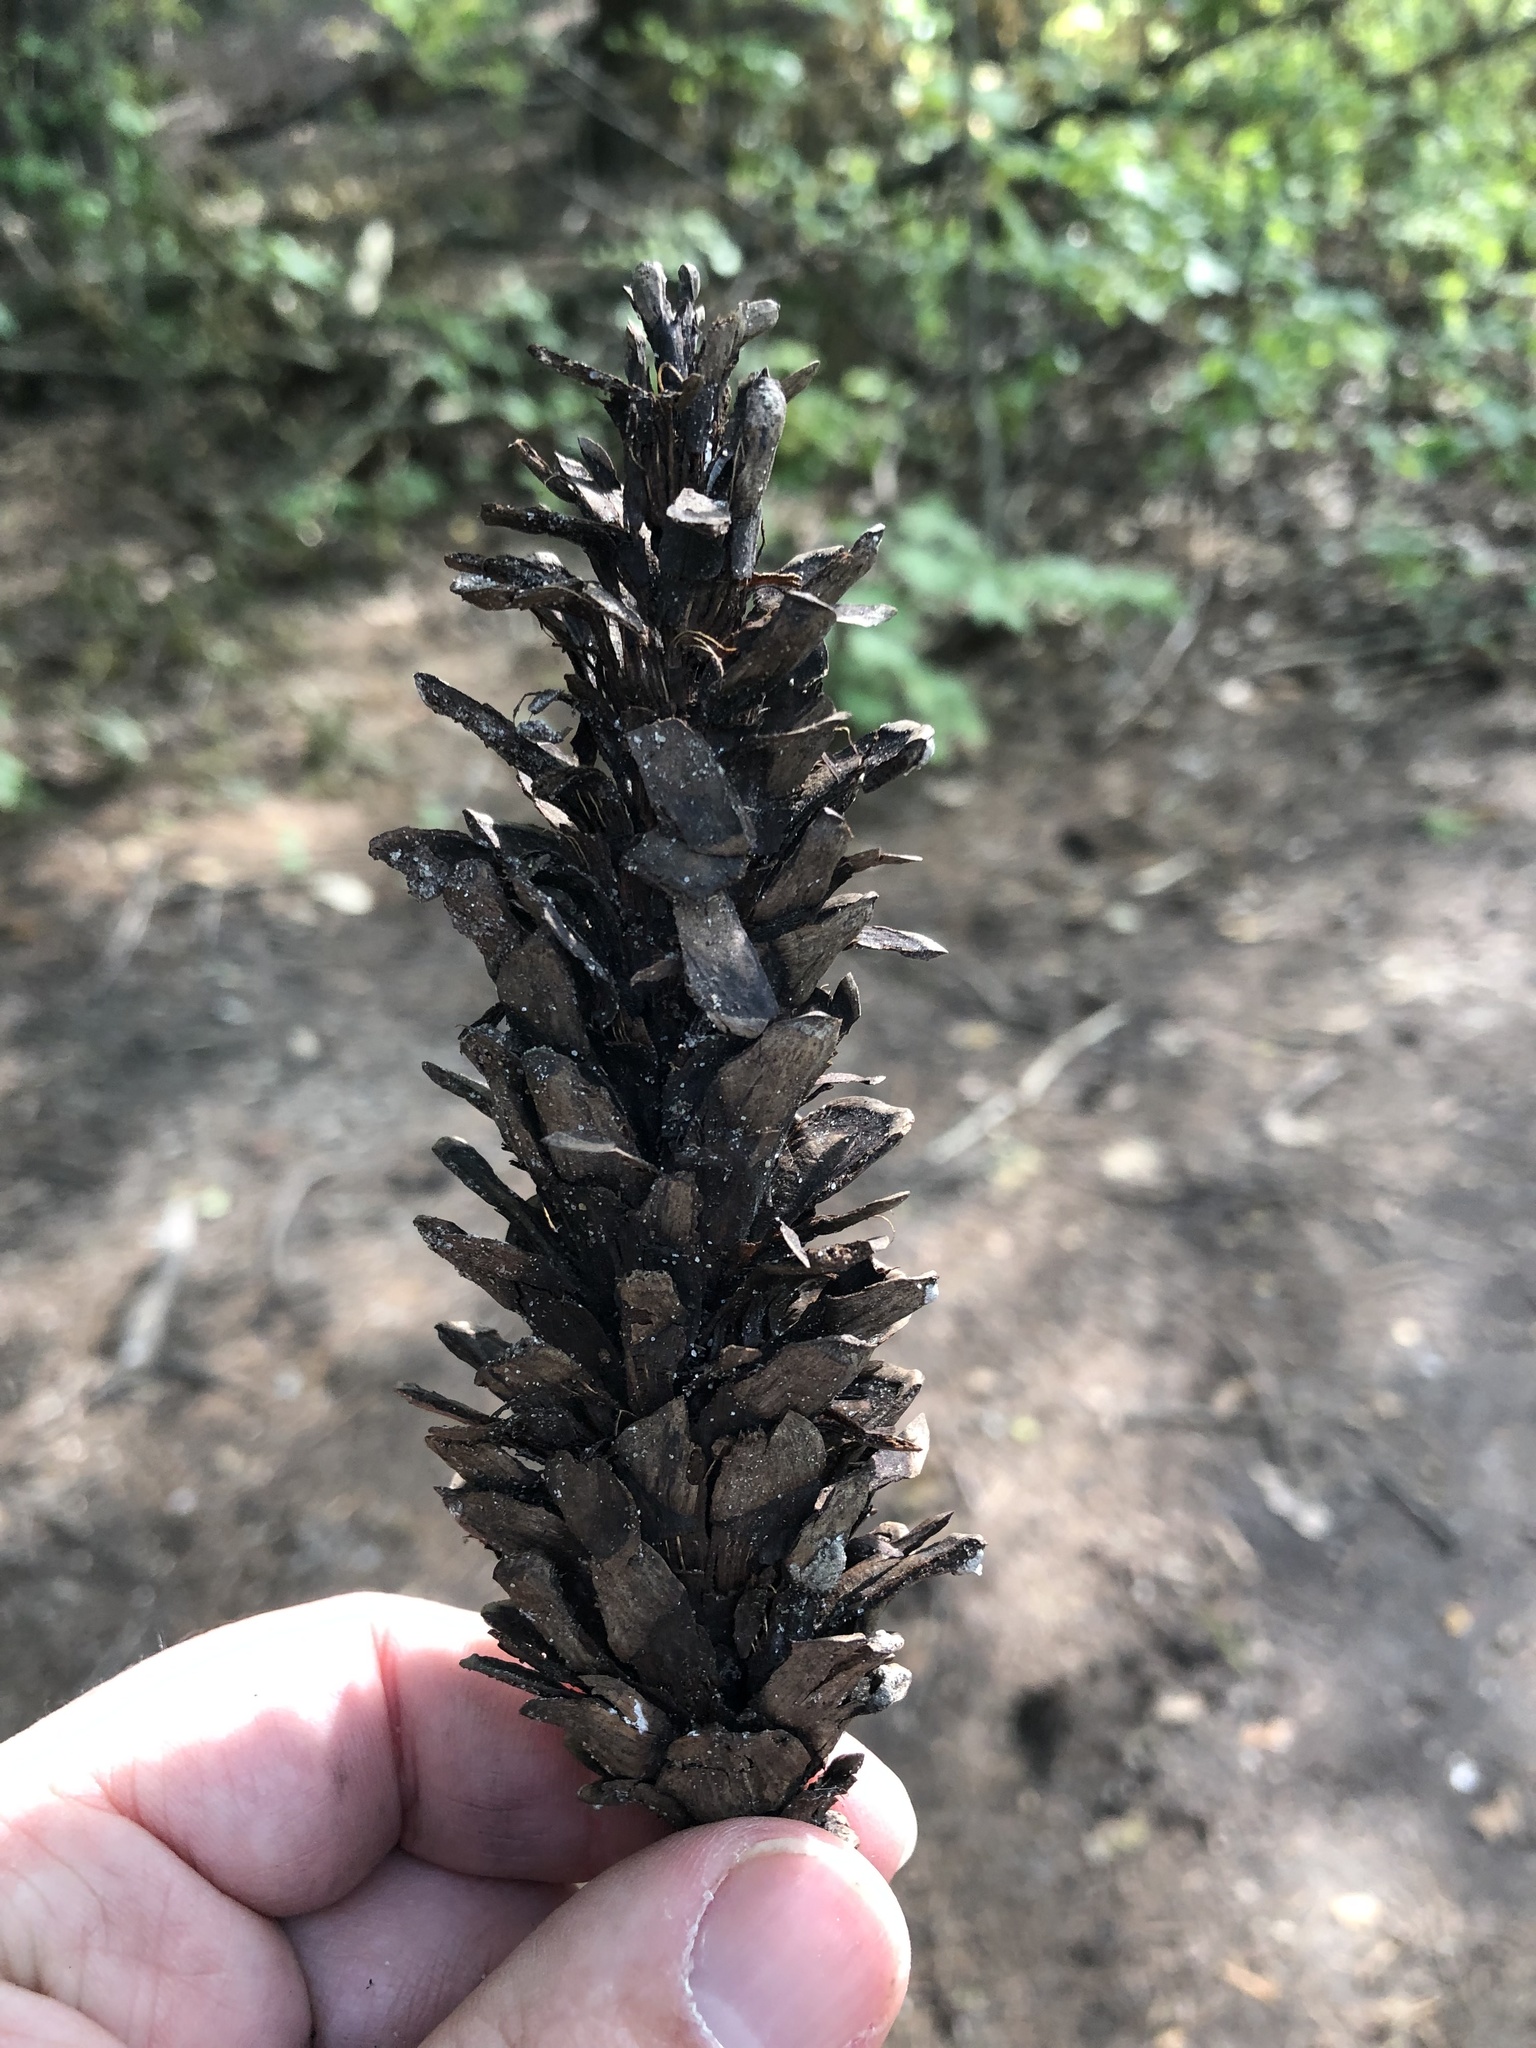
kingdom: Plantae
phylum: Tracheophyta
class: Pinopsida
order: Pinales
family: Pinaceae
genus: Pinus
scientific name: Pinus strobus
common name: Weymouth pine
